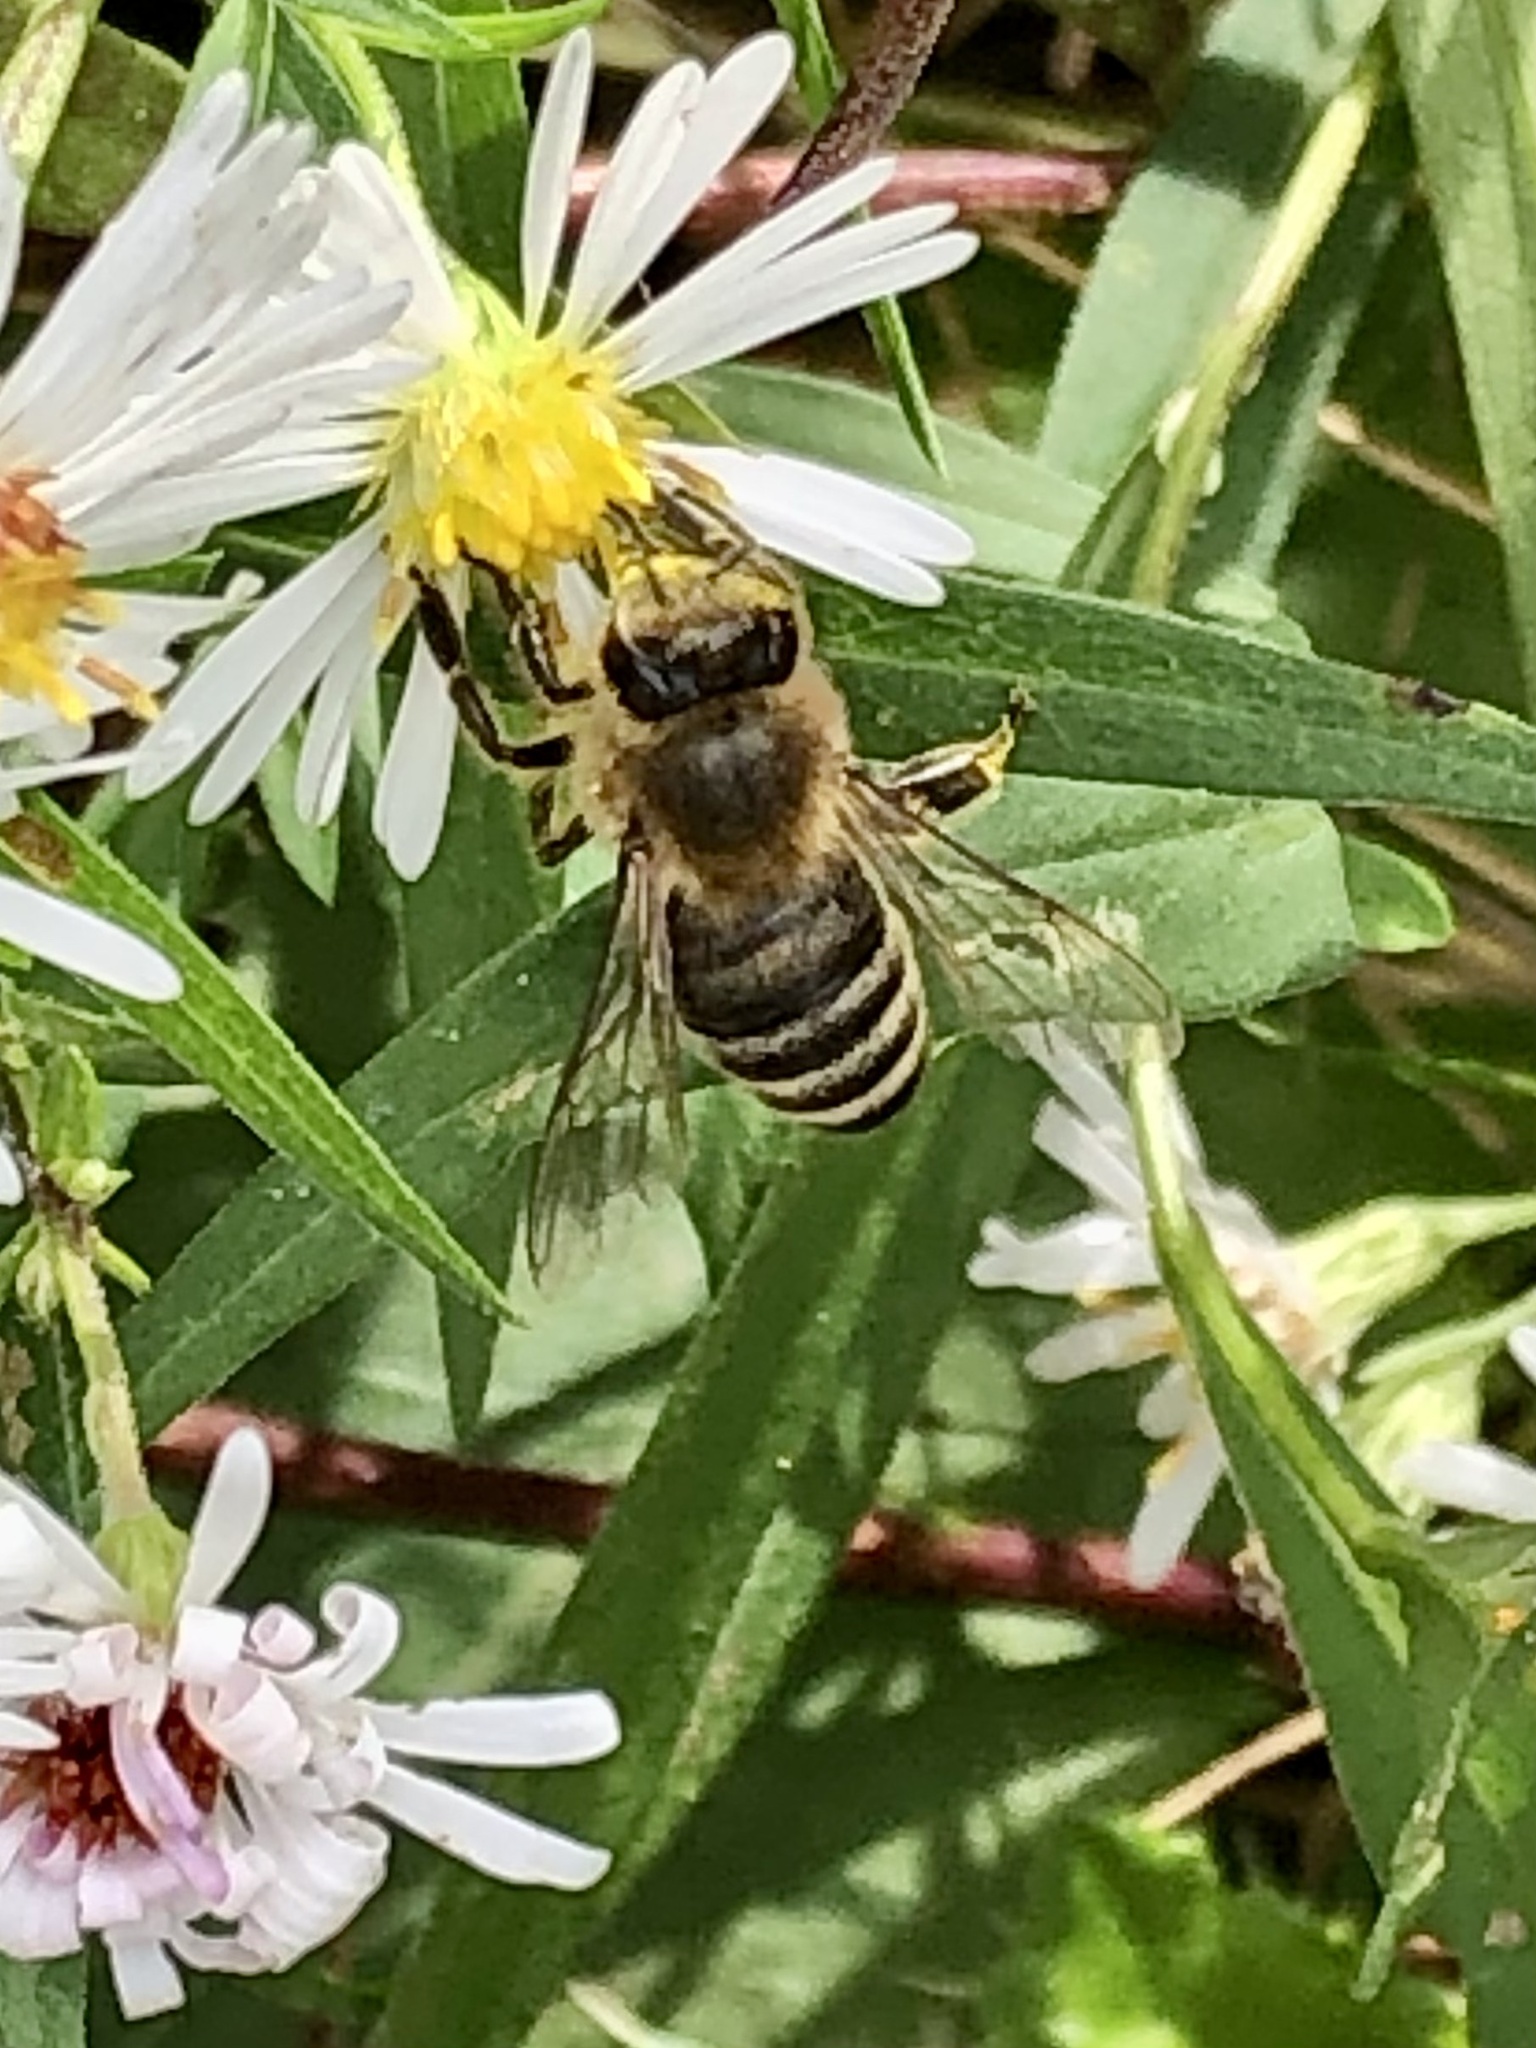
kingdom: Animalia
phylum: Arthropoda
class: Insecta
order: Hymenoptera
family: Apidae
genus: Apis
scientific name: Apis mellifera
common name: Honey bee
